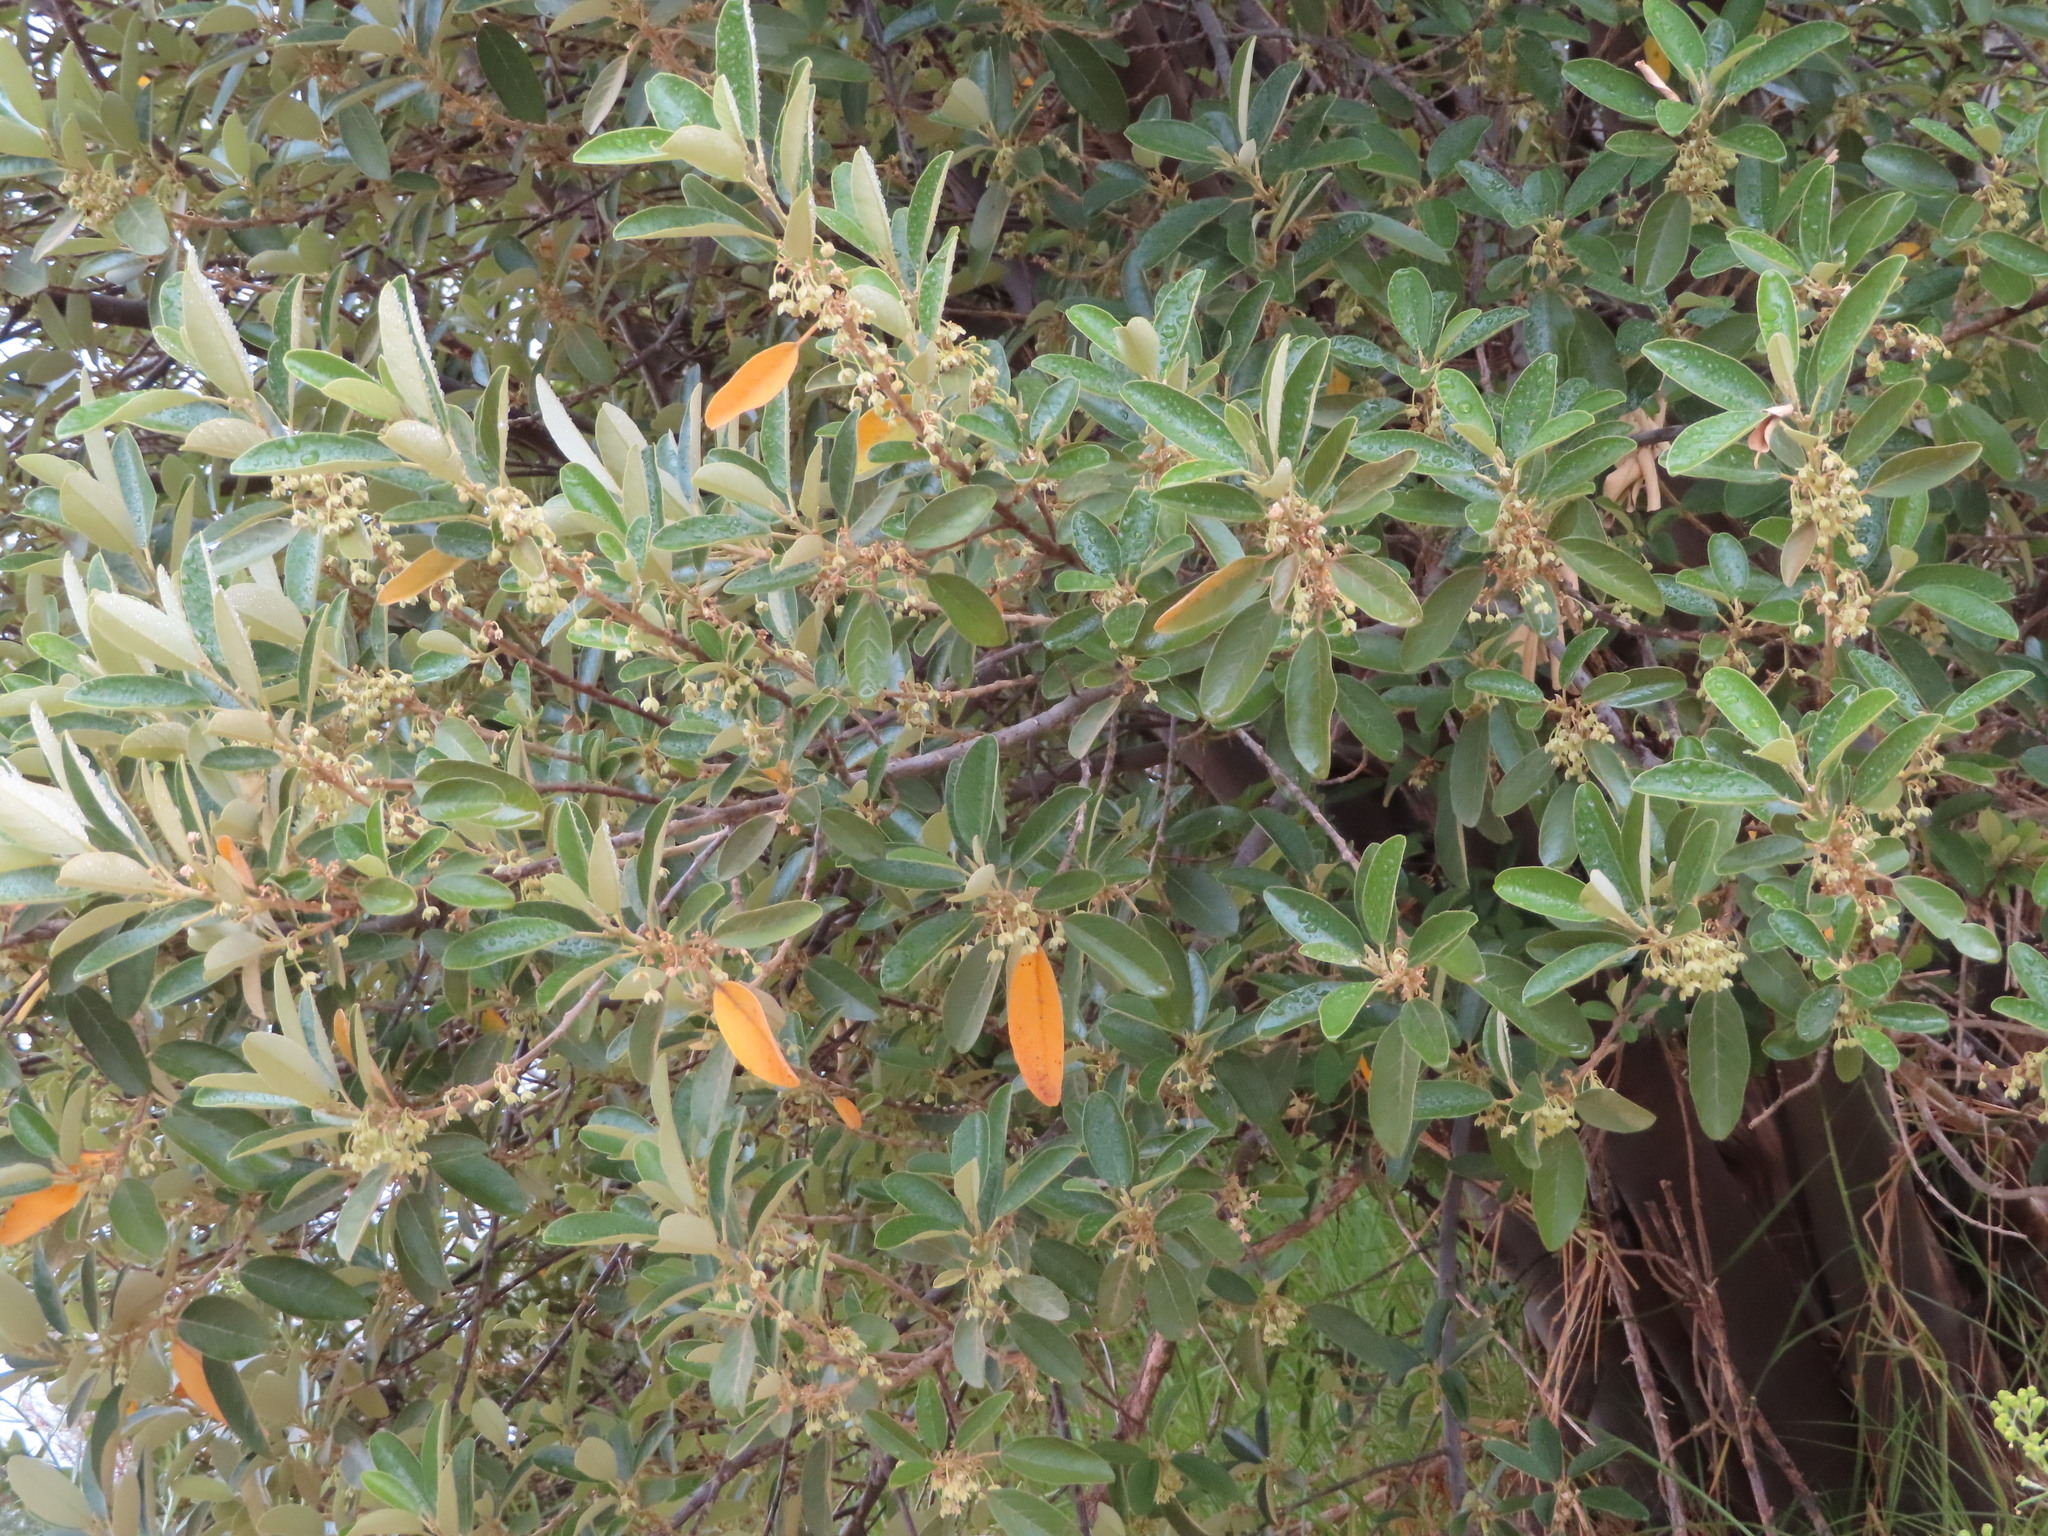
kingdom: Plantae
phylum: Tracheophyta
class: Magnoliopsida
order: Malpighiales
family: Achariaceae
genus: Kiggelaria
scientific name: Kiggelaria africana
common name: Wild peach
